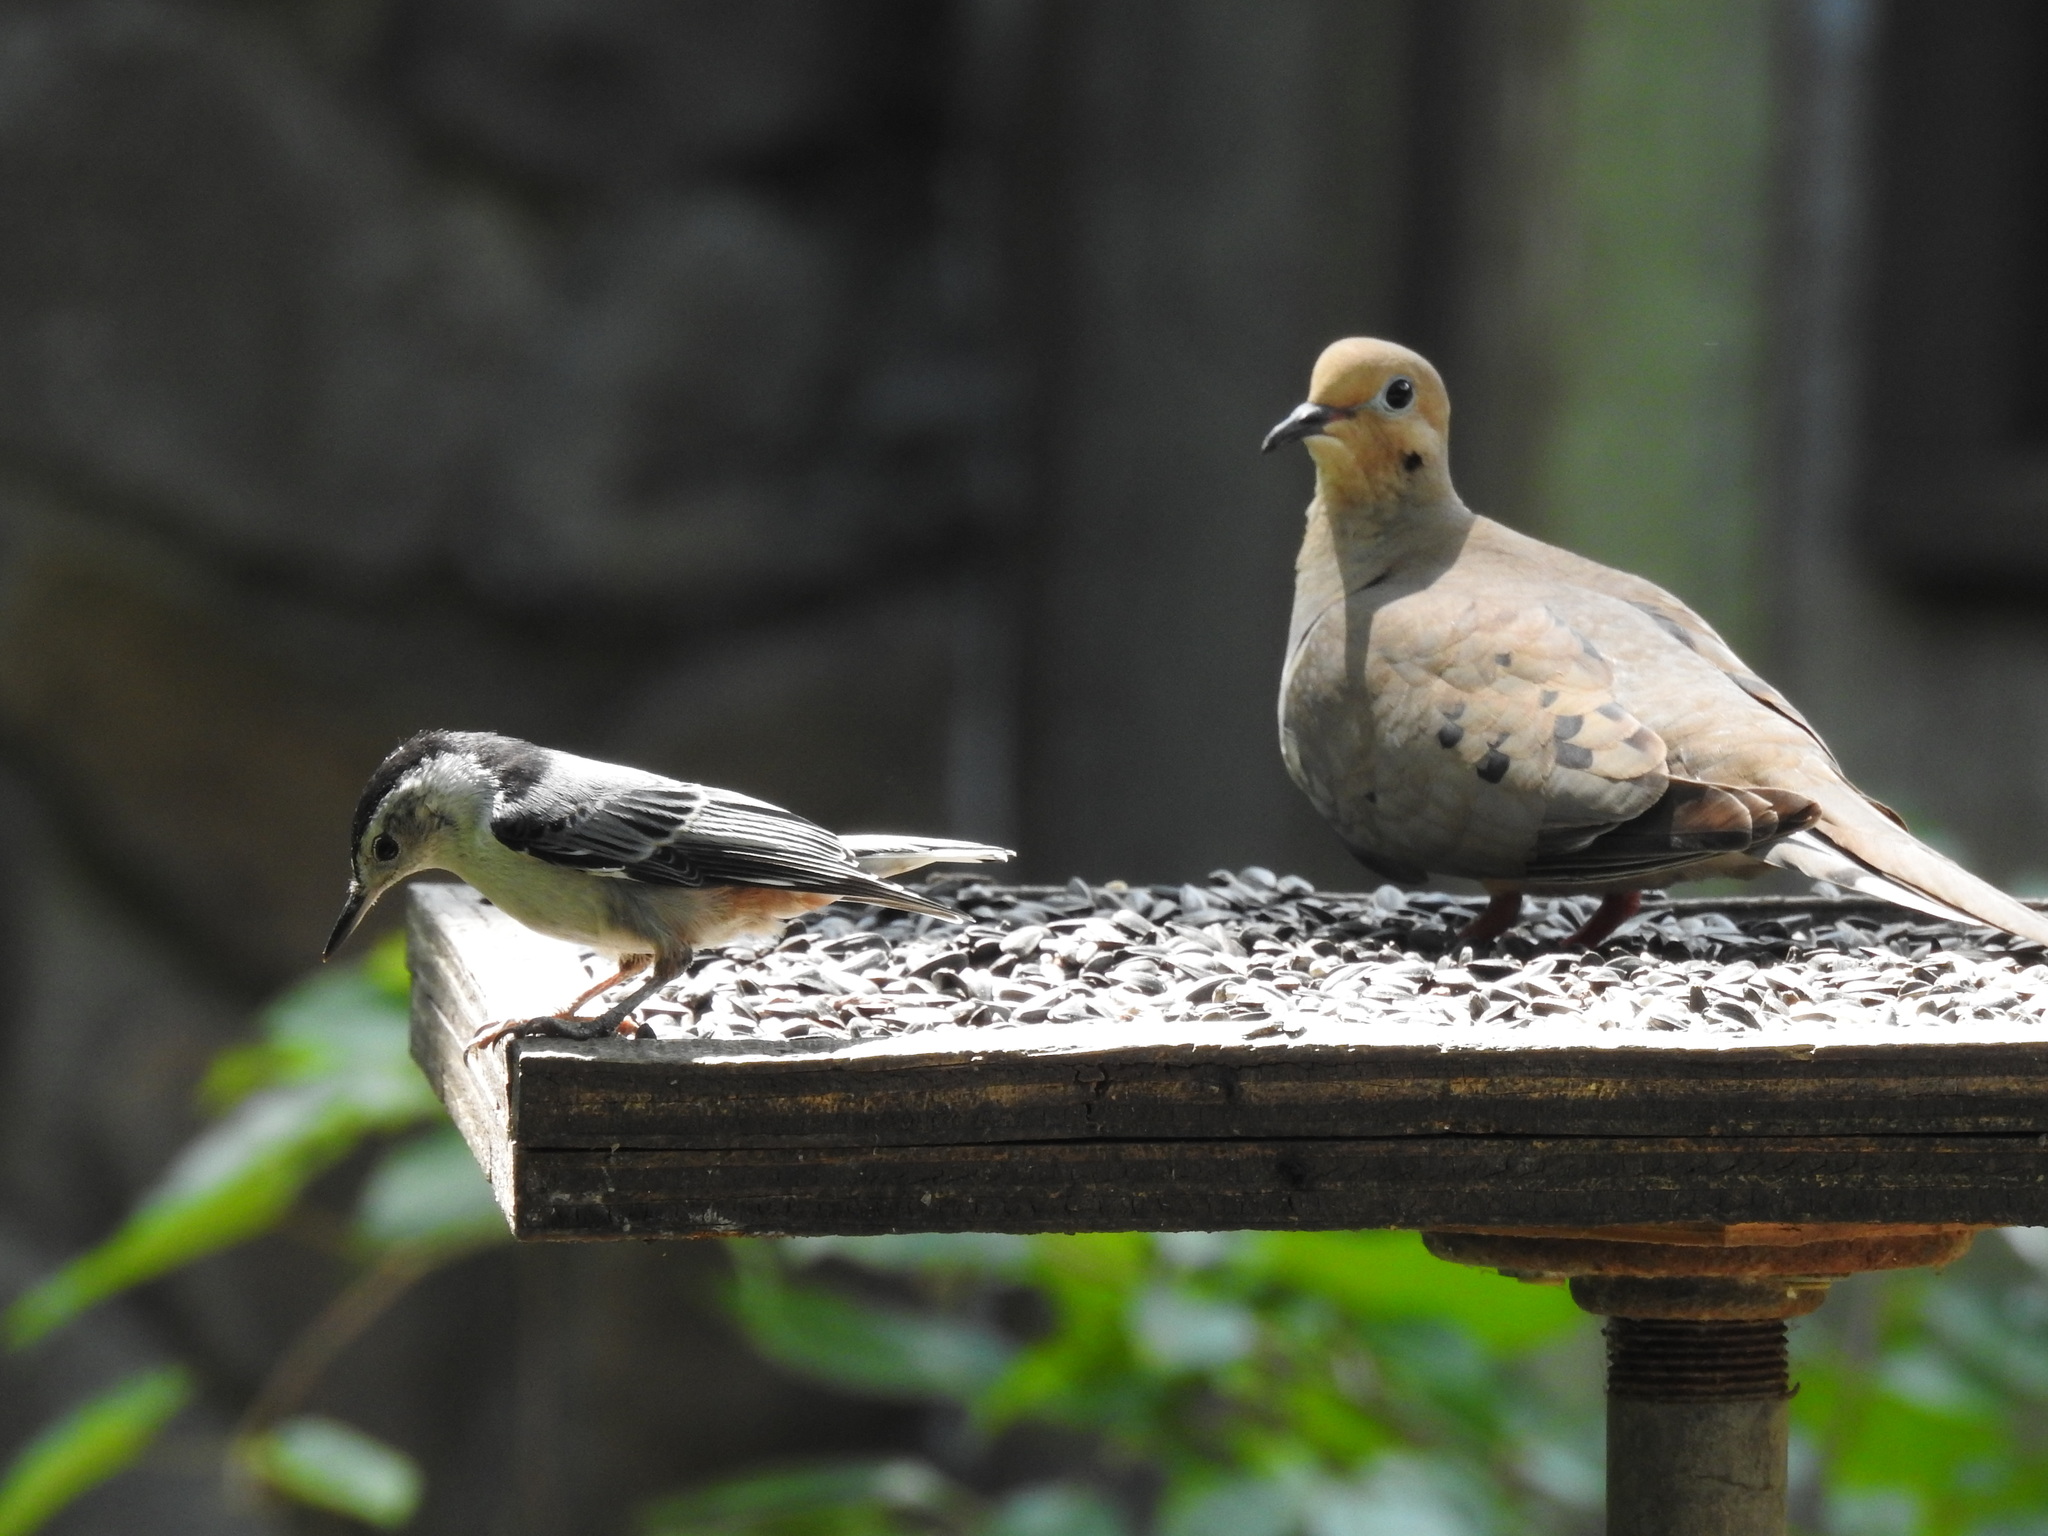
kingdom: Animalia
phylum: Chordata
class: Aves
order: Passeriformes
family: Sittidae
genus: Sitta
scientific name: Sitta carolinensis
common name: White-breasted nuthatch
